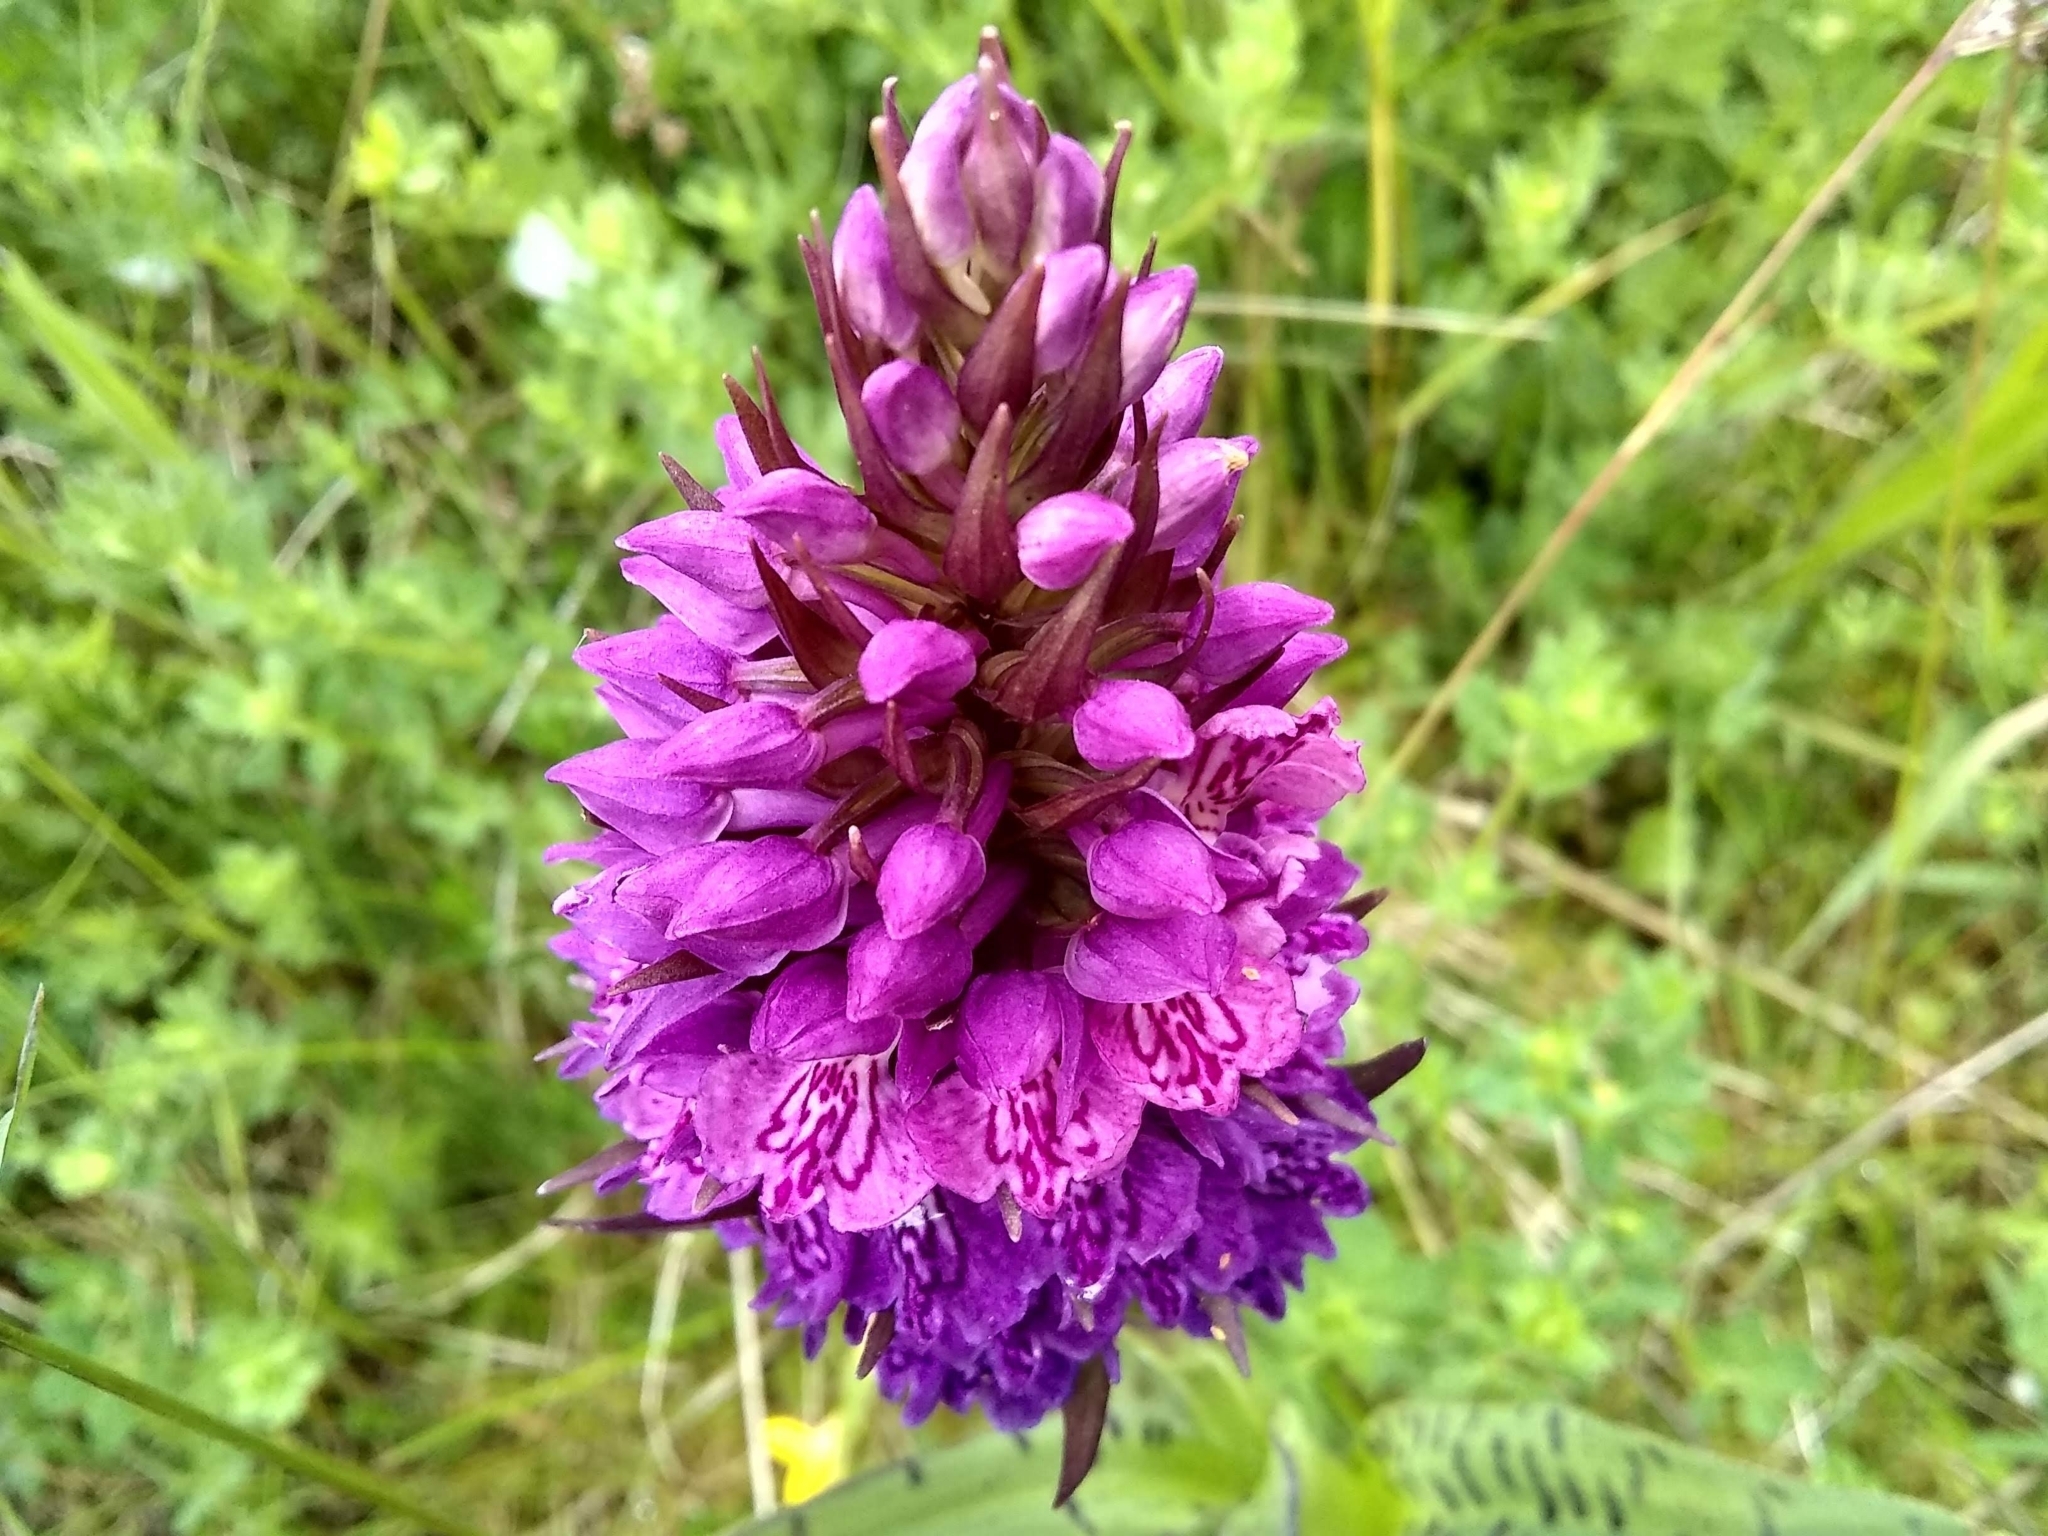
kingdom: Plantae
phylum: Tracheophyta
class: Liliopsida
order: Asparagales
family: Orchidaceae
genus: Dactylorhiza
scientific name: Dactylorhiza majalis
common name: Marsh orchid
